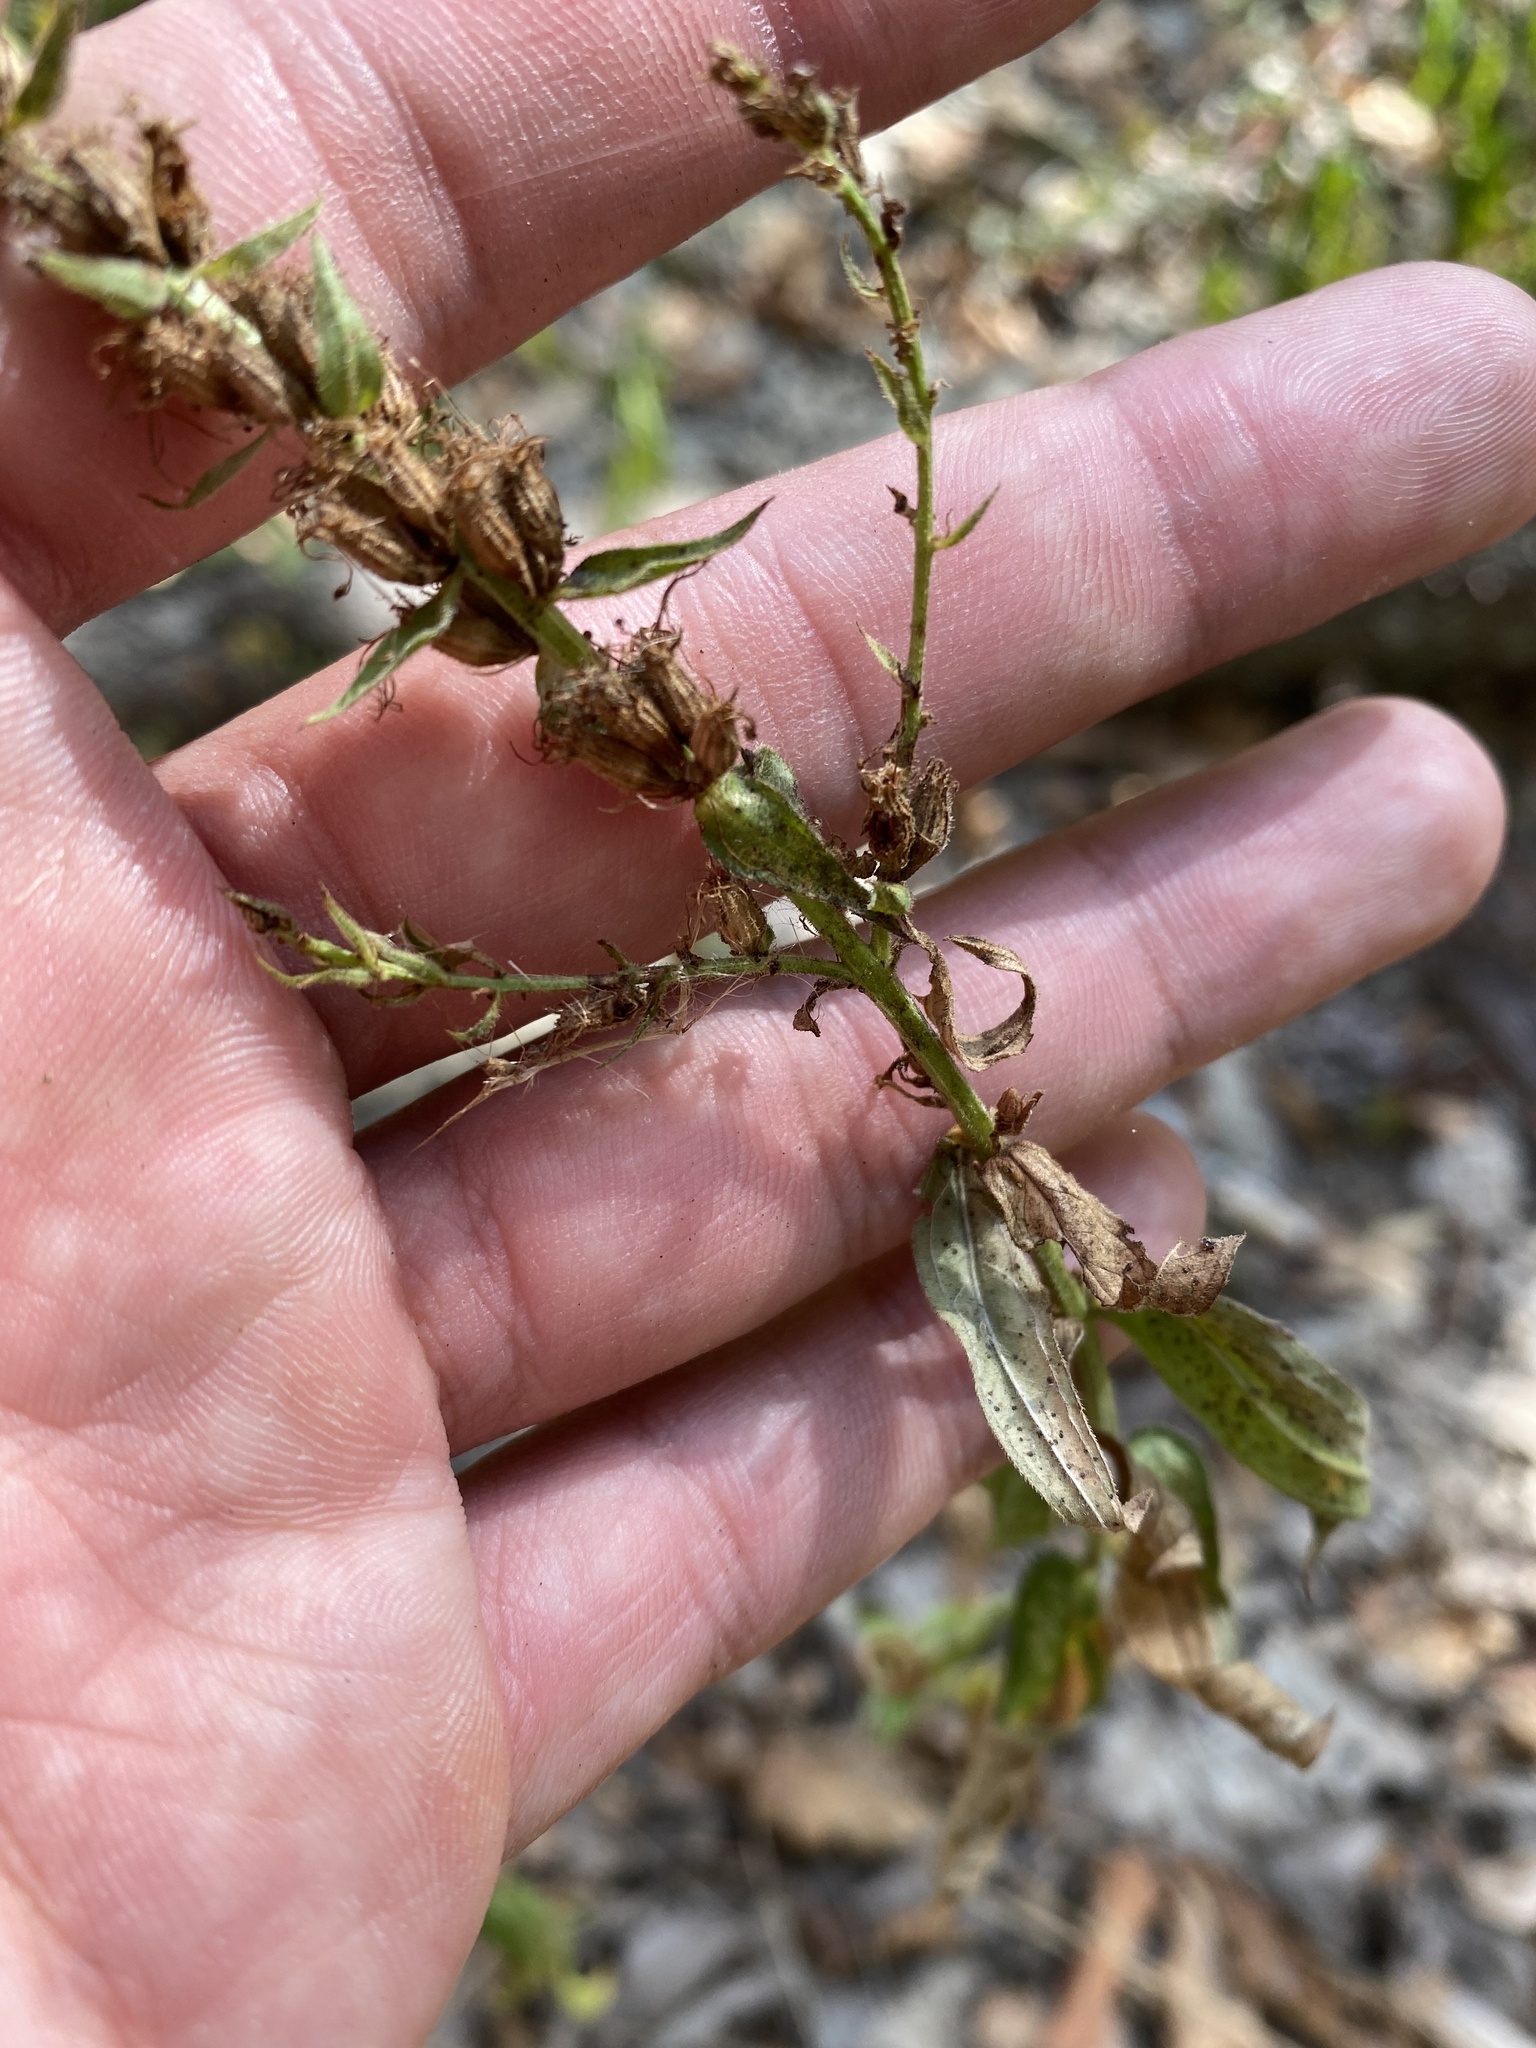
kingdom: Plantae
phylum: Tracheophyta
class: Magnoliopsida
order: Myrtales
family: Lythraceae
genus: Lythrum
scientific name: Lythrum salicaria
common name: Purple loosestrife
